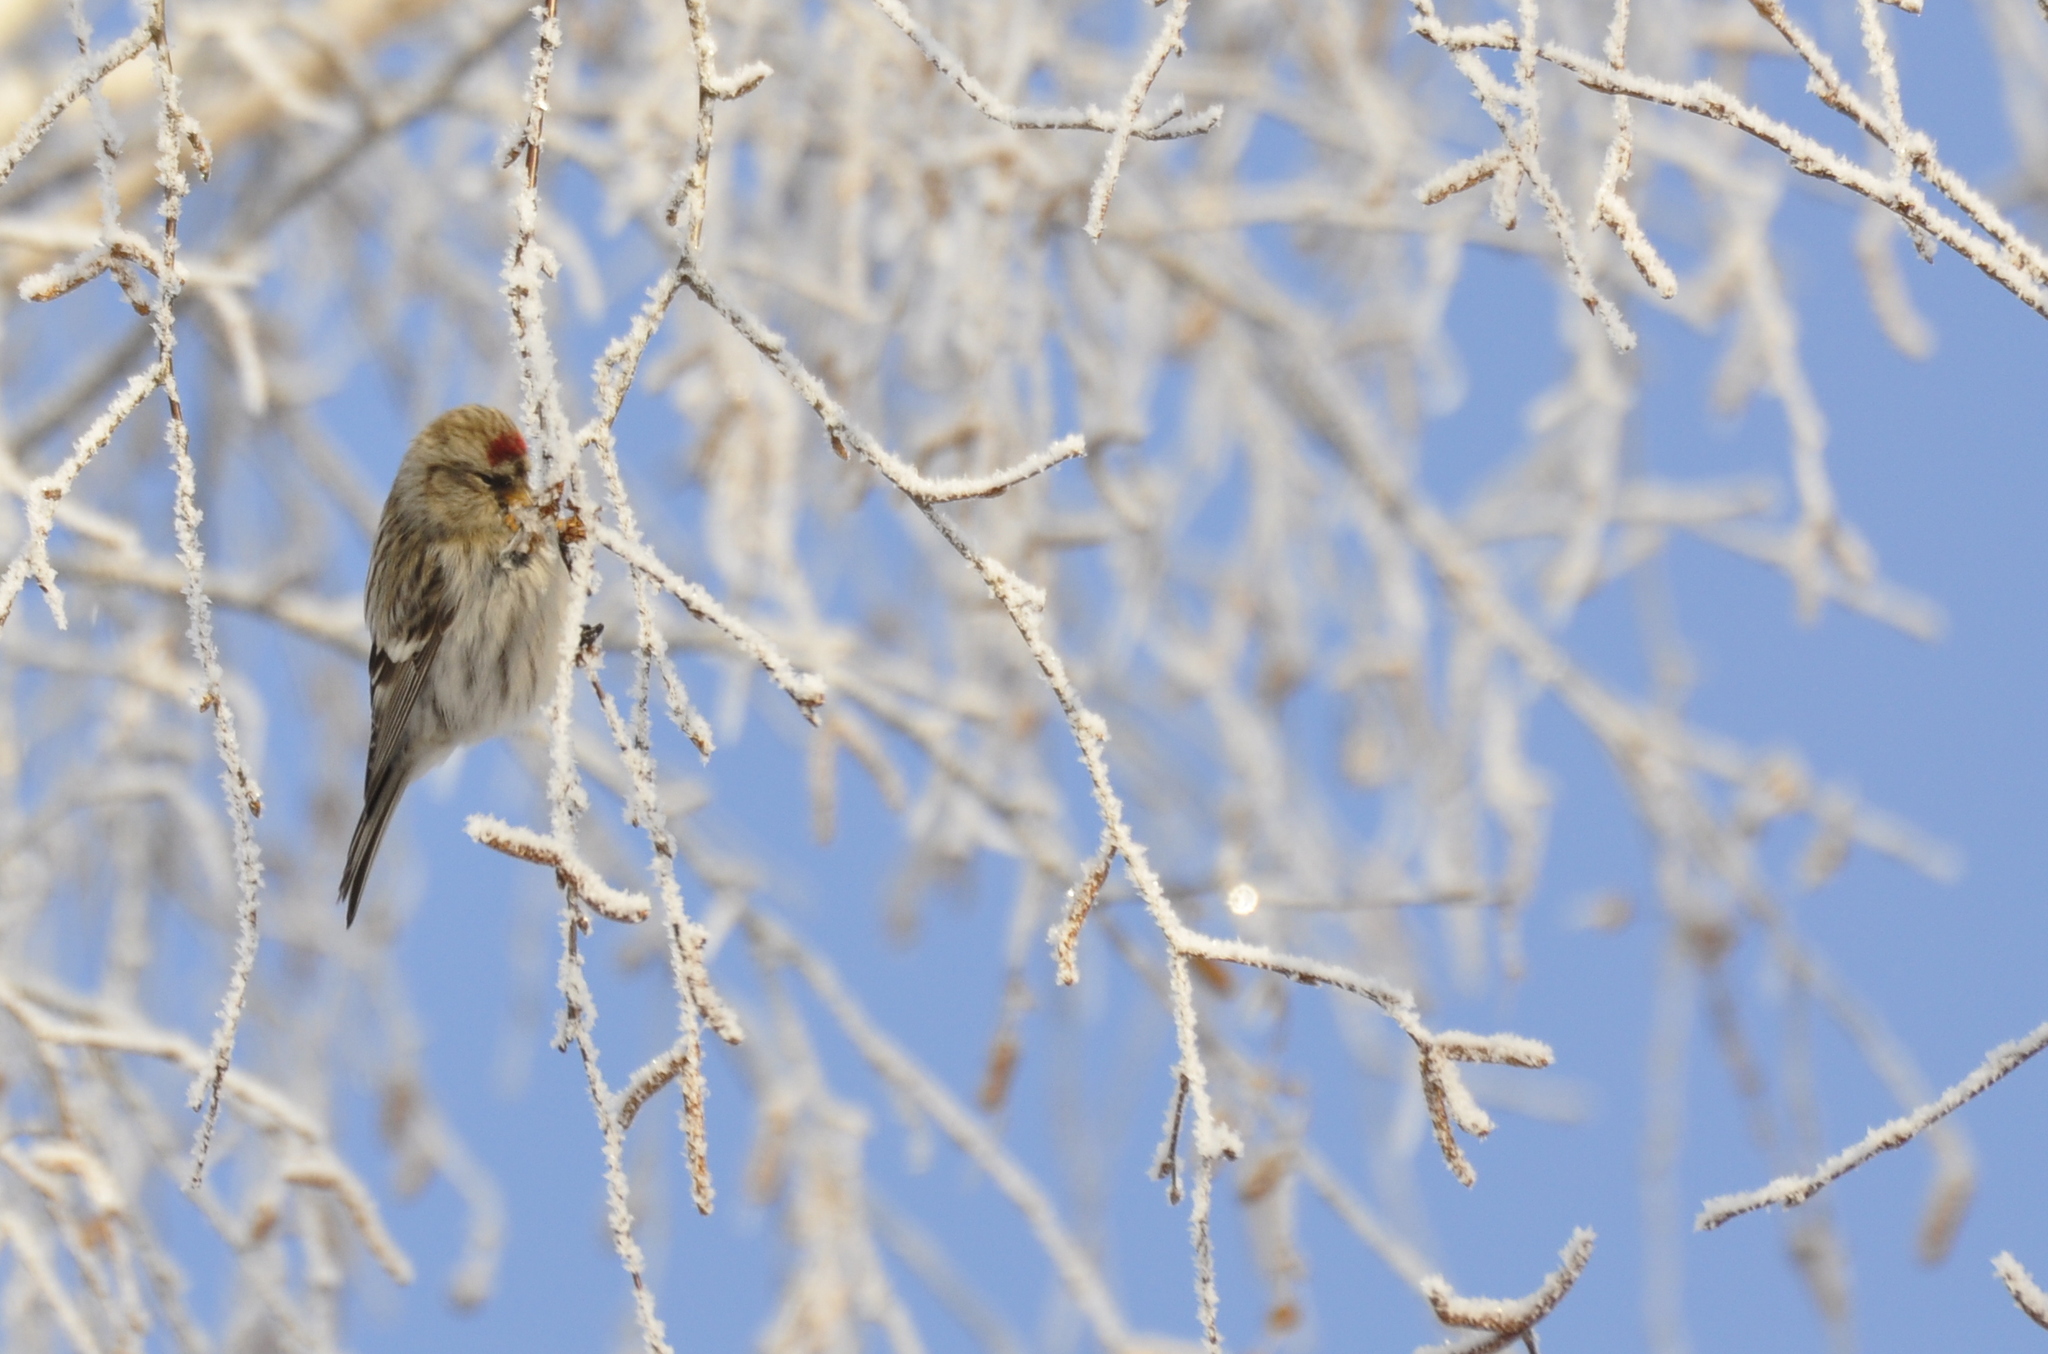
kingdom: Animalia
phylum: Chordata
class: Aves
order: Passeriformes
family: Fringillidae
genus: Acanthis
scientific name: Acanthis flammea
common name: Common redpoll
